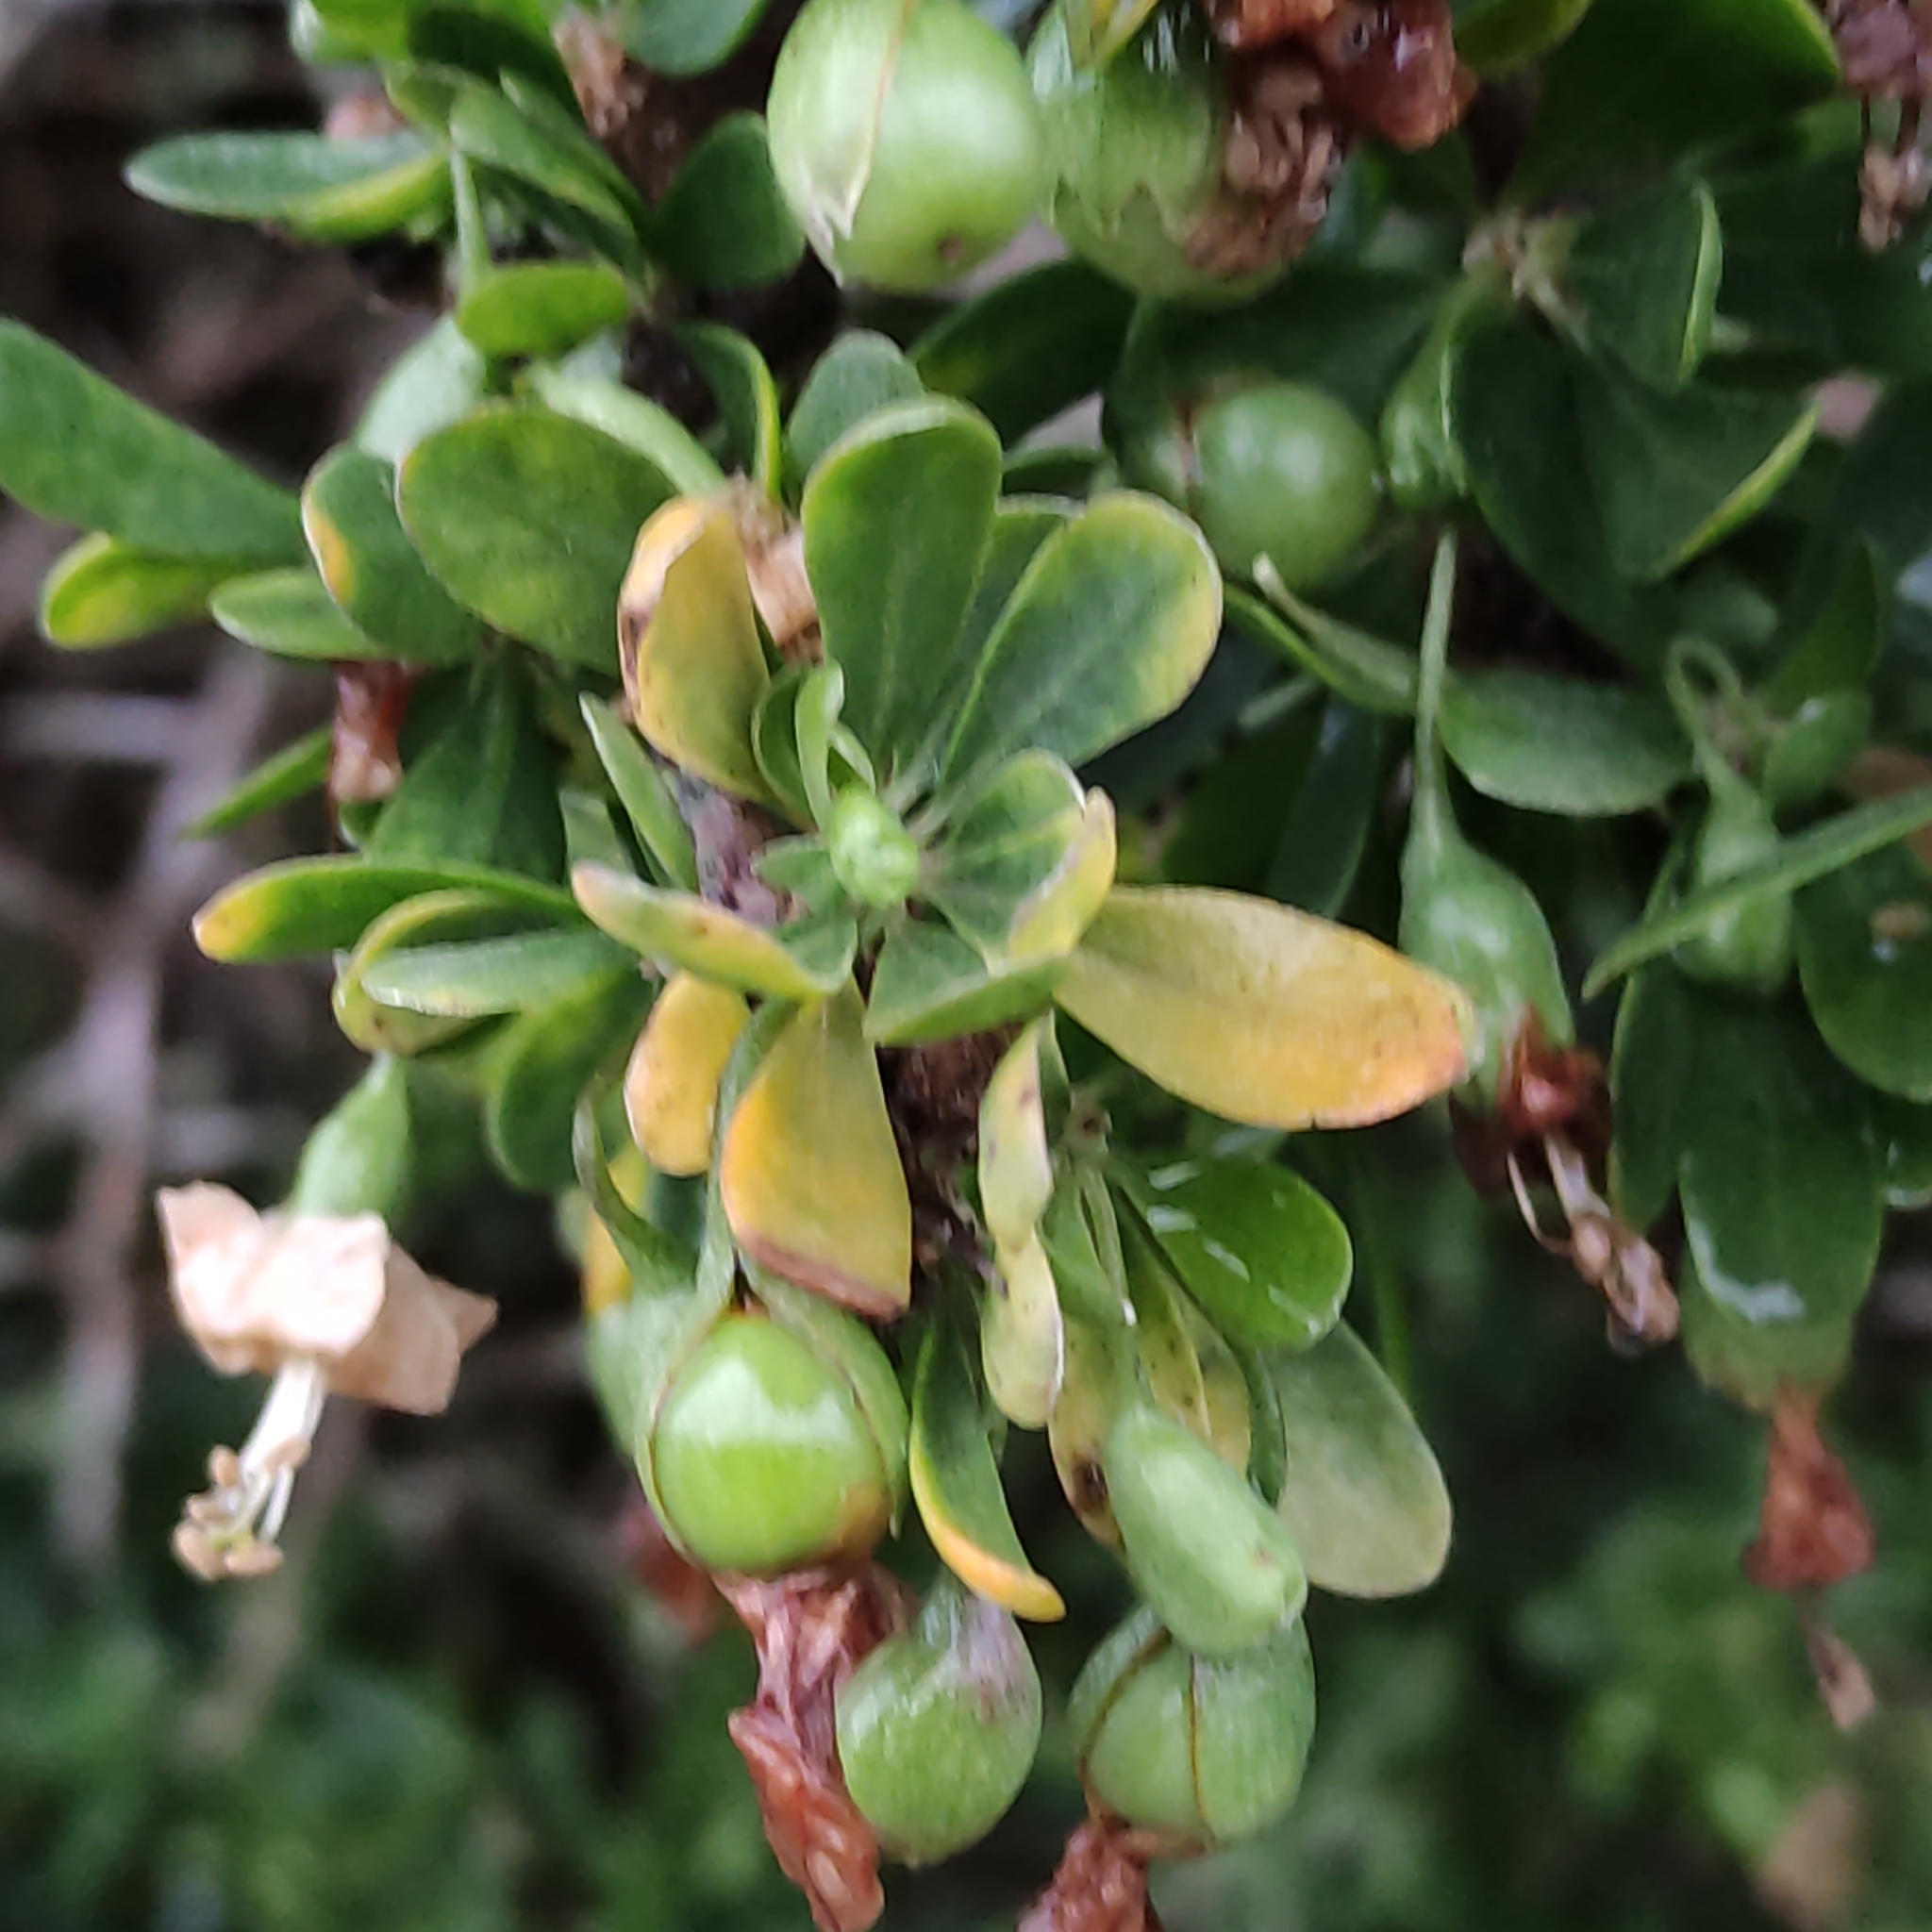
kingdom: Plantae
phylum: Tracheophyta
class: Magnoliopsida
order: Solanales
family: Solanaceae
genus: Lycium
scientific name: Lycium ferocissimum
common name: African boxthorn
